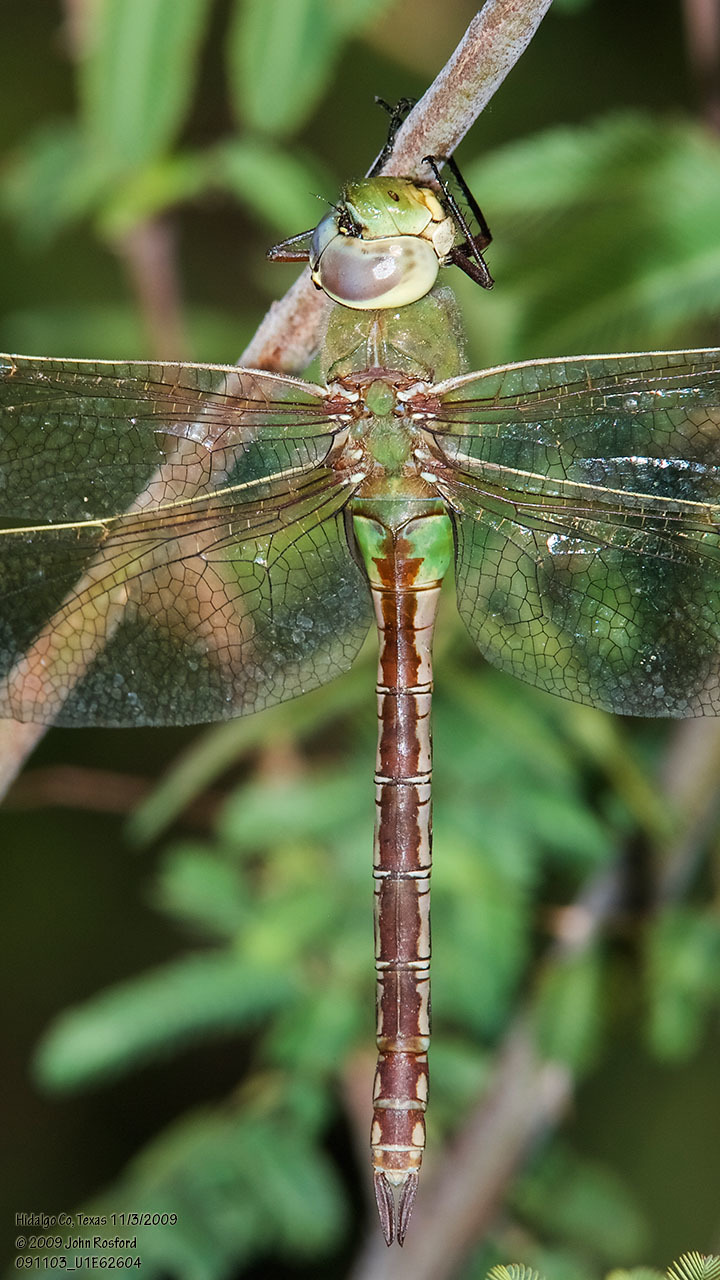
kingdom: Animalia
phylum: Arthropoda
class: Insecta
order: Odonata
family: Aeshnidae
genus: Anax
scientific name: Anax junius
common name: Common green darner
